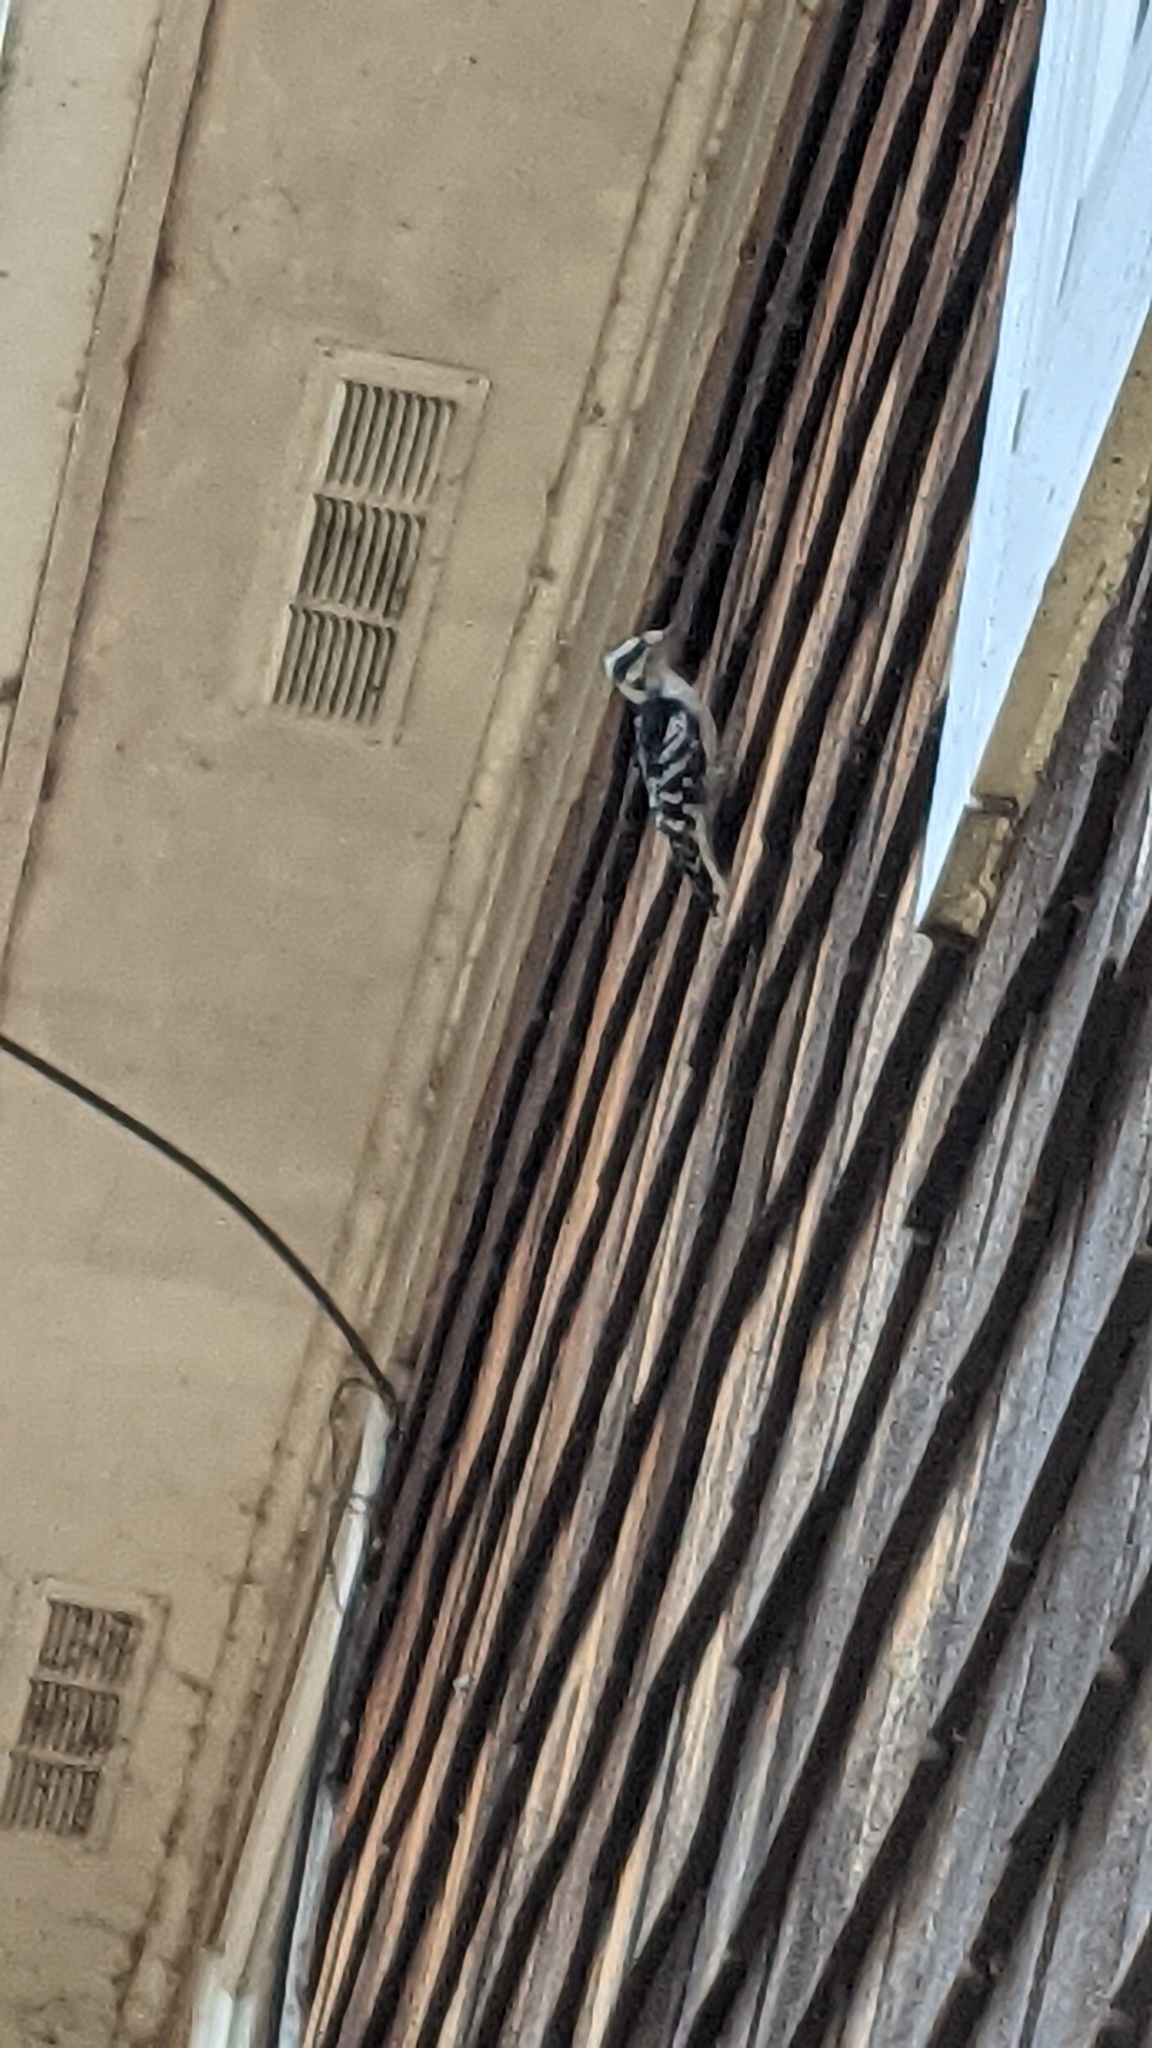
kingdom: Animalia
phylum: Chordata
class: Aves
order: Piciformes
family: Picidae
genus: Dryobates
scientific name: Dryobates pubescens
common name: Downy woodpecker
